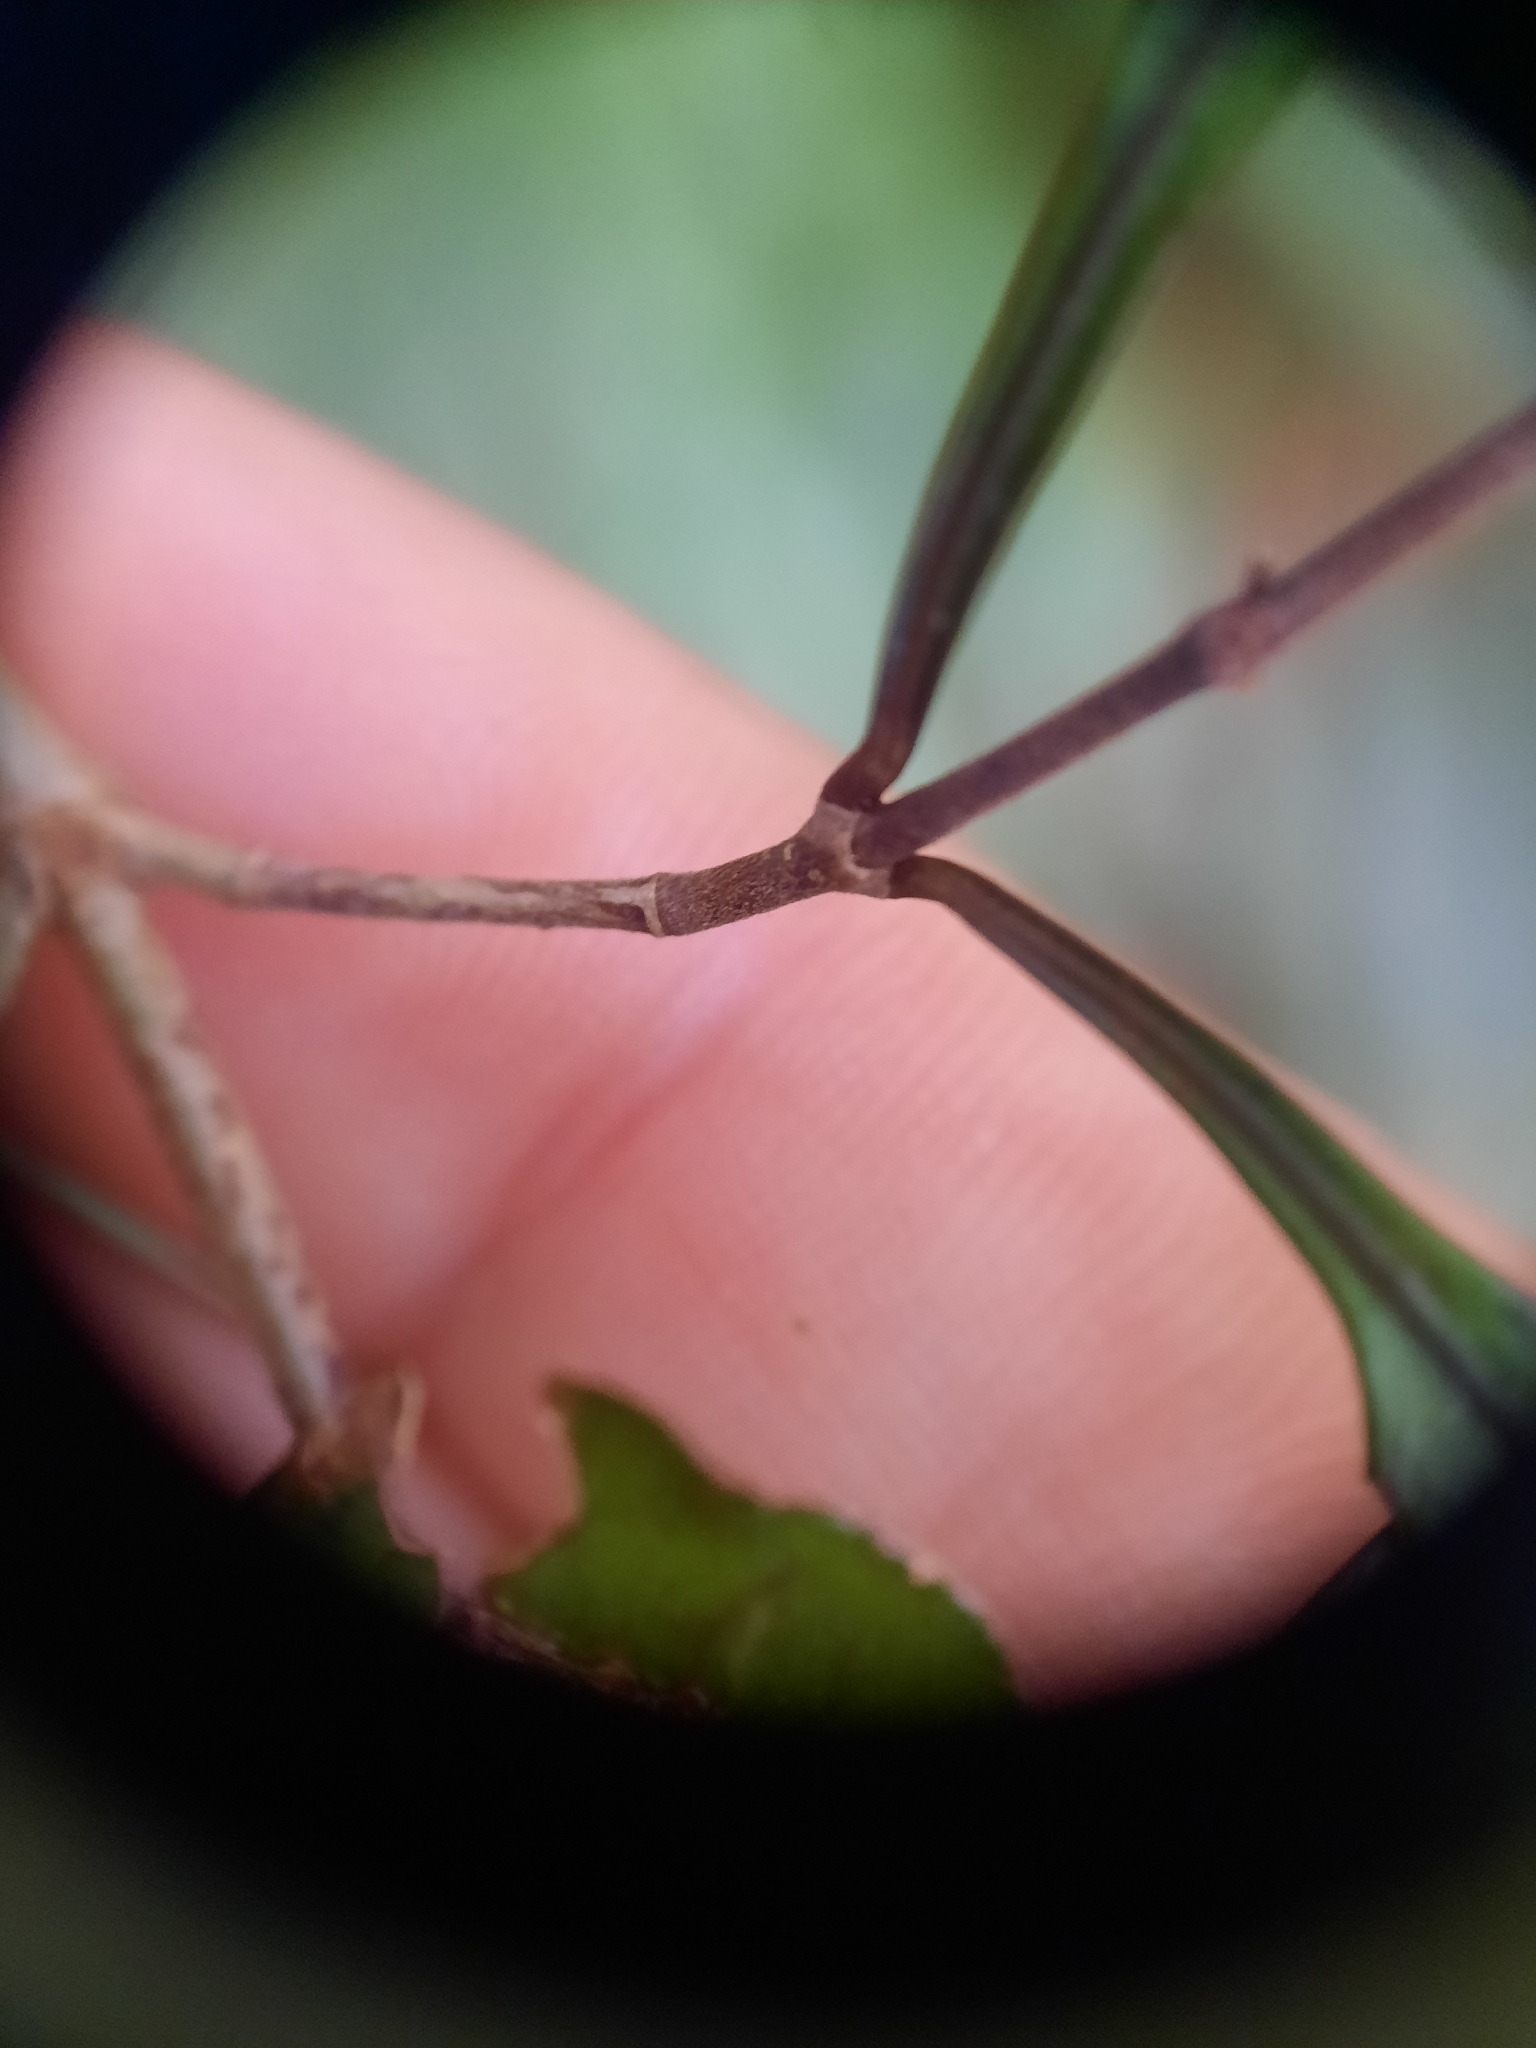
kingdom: Plantae
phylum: Tracheophyta
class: Magnoliopsida
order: Gentianales
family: Rubiaceae
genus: Coprosma
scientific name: Coprosma arborea
